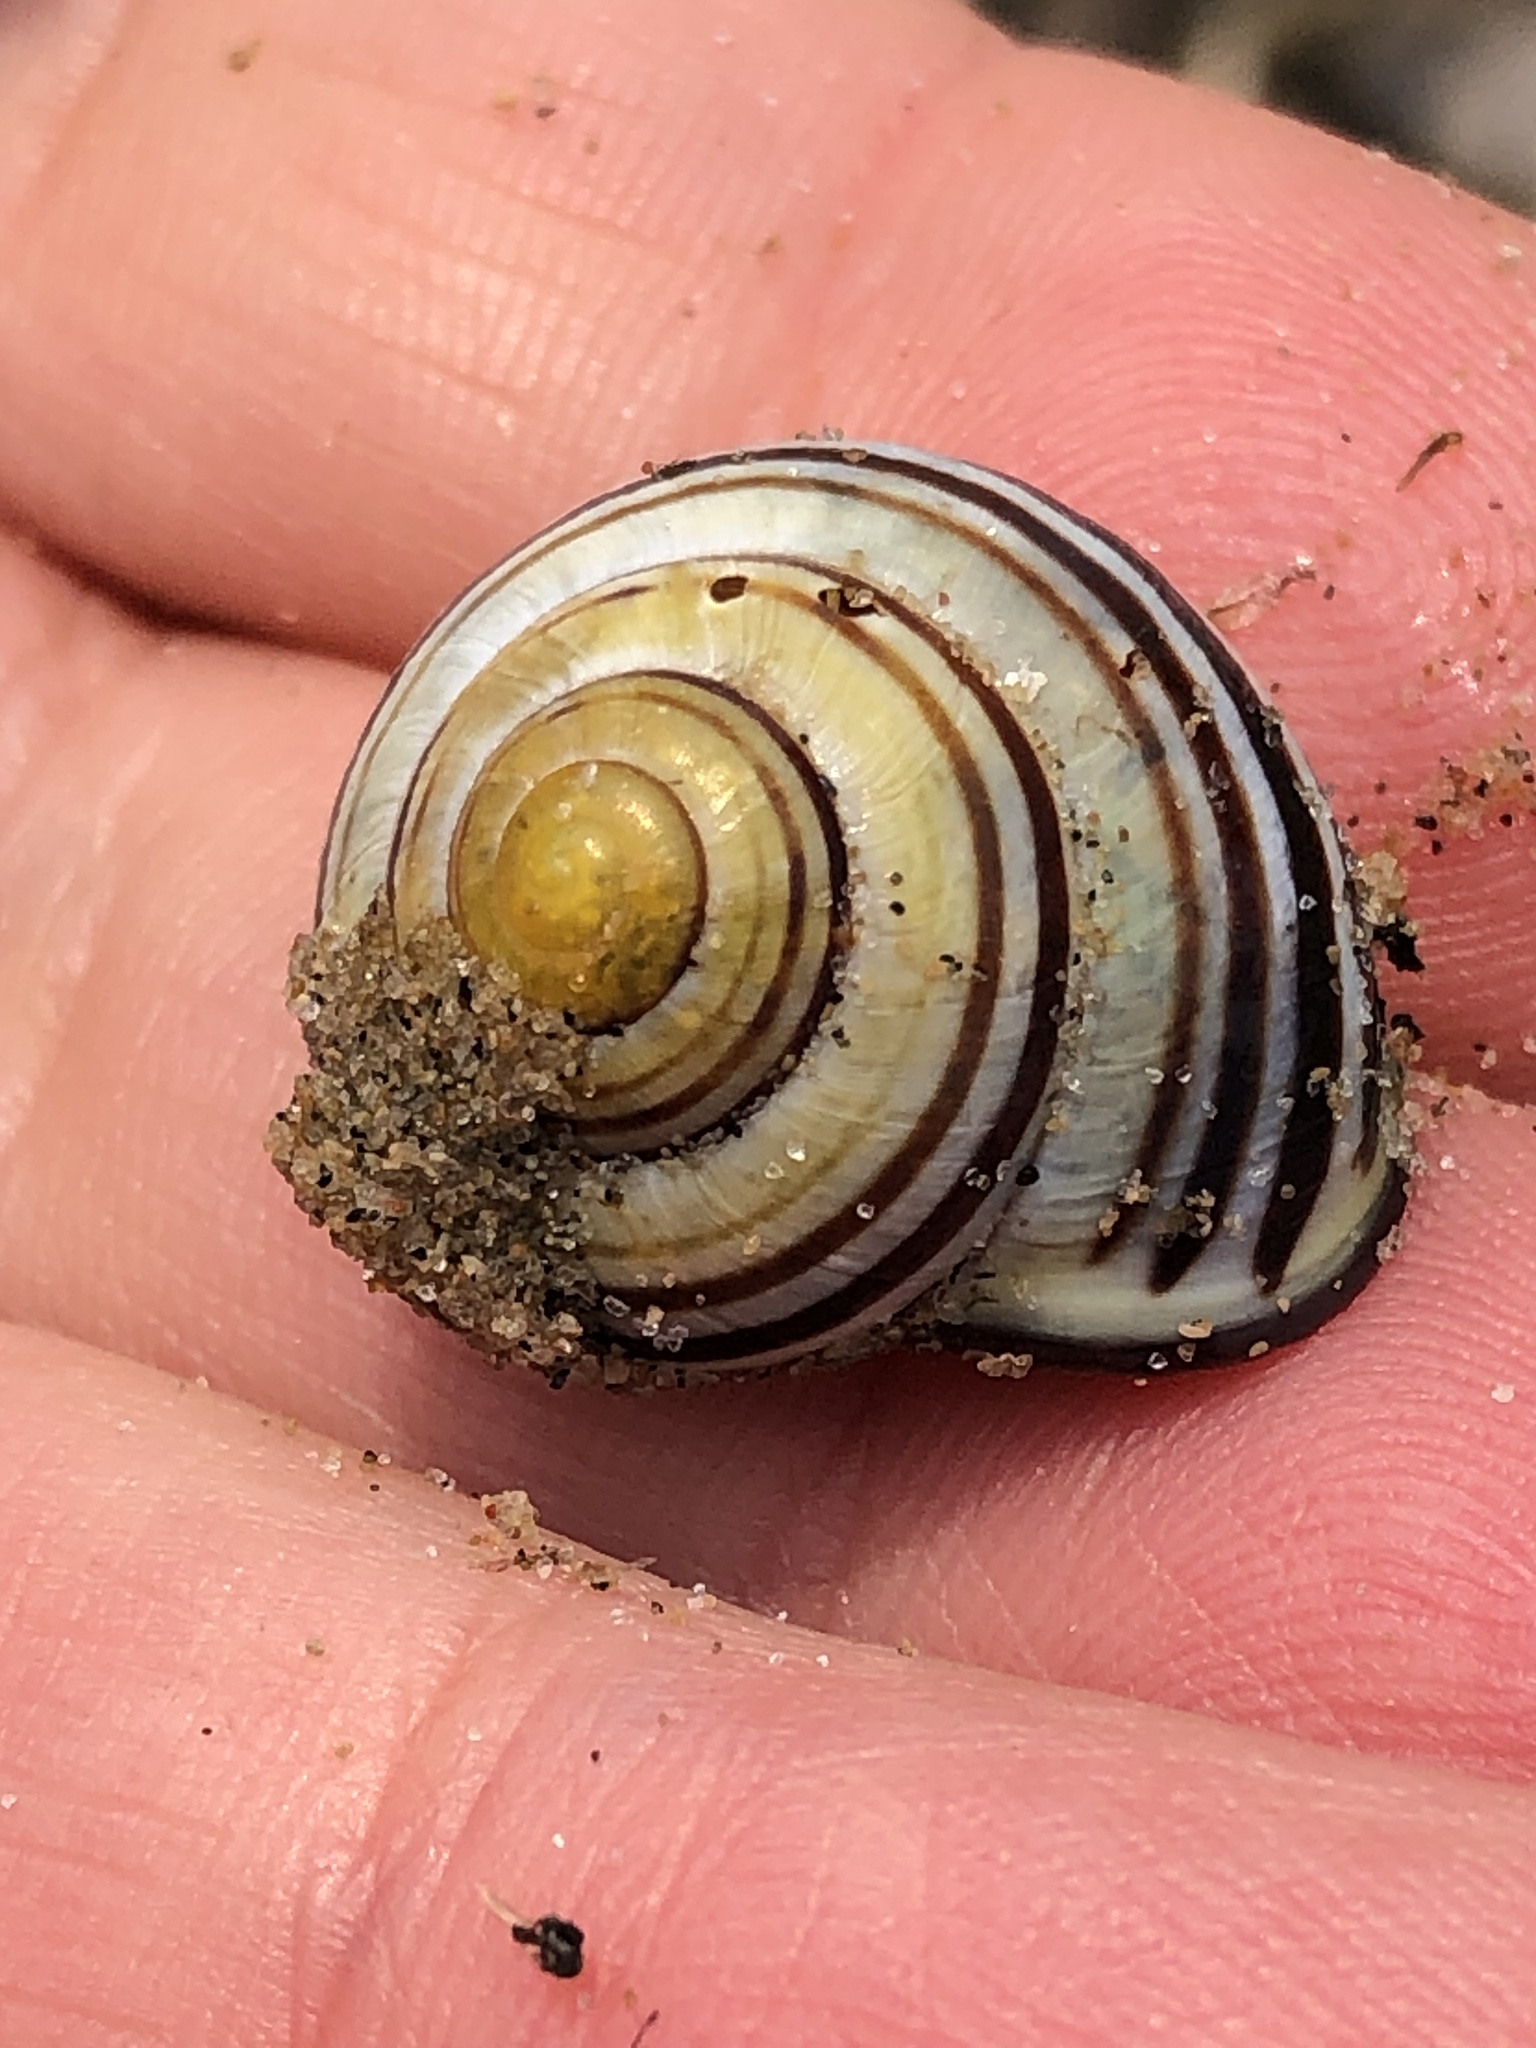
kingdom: Animalia
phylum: Mollusca
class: Gastropoda
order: Stylommatophora
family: Helicidae
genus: Cepaea
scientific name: Cepaea nemoralis
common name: Grovesnail
